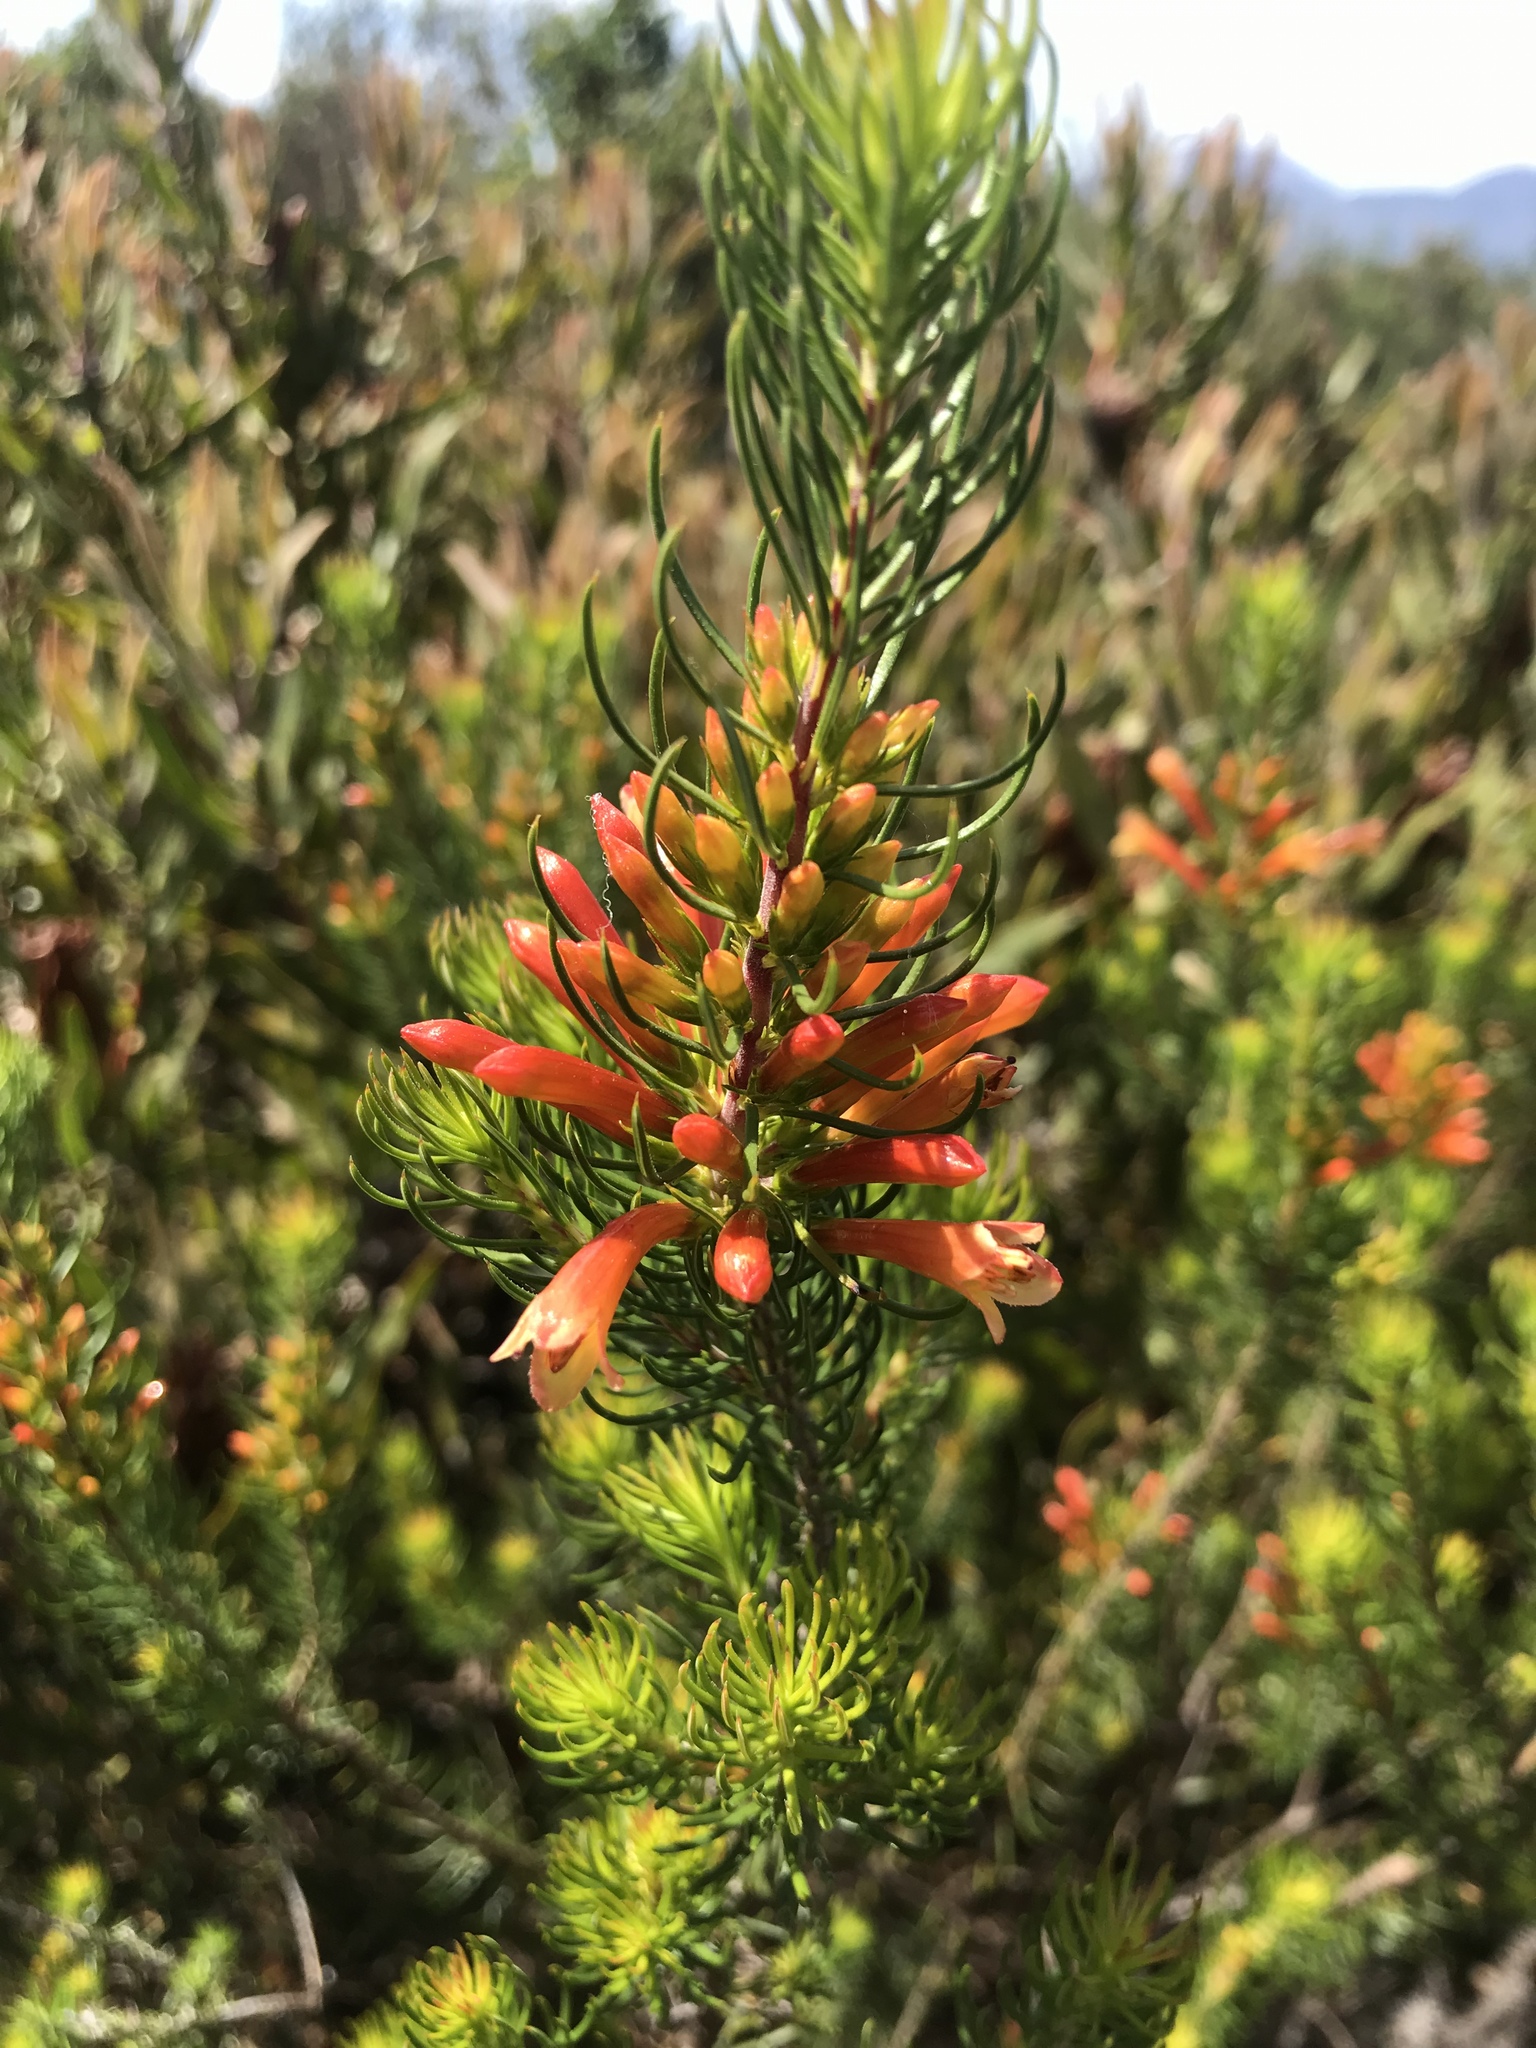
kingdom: Plantae
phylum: Tracheophyta
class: Magnoliopsida
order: Ericales
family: Ericaceae
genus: Erica
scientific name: Erica grandiflora
